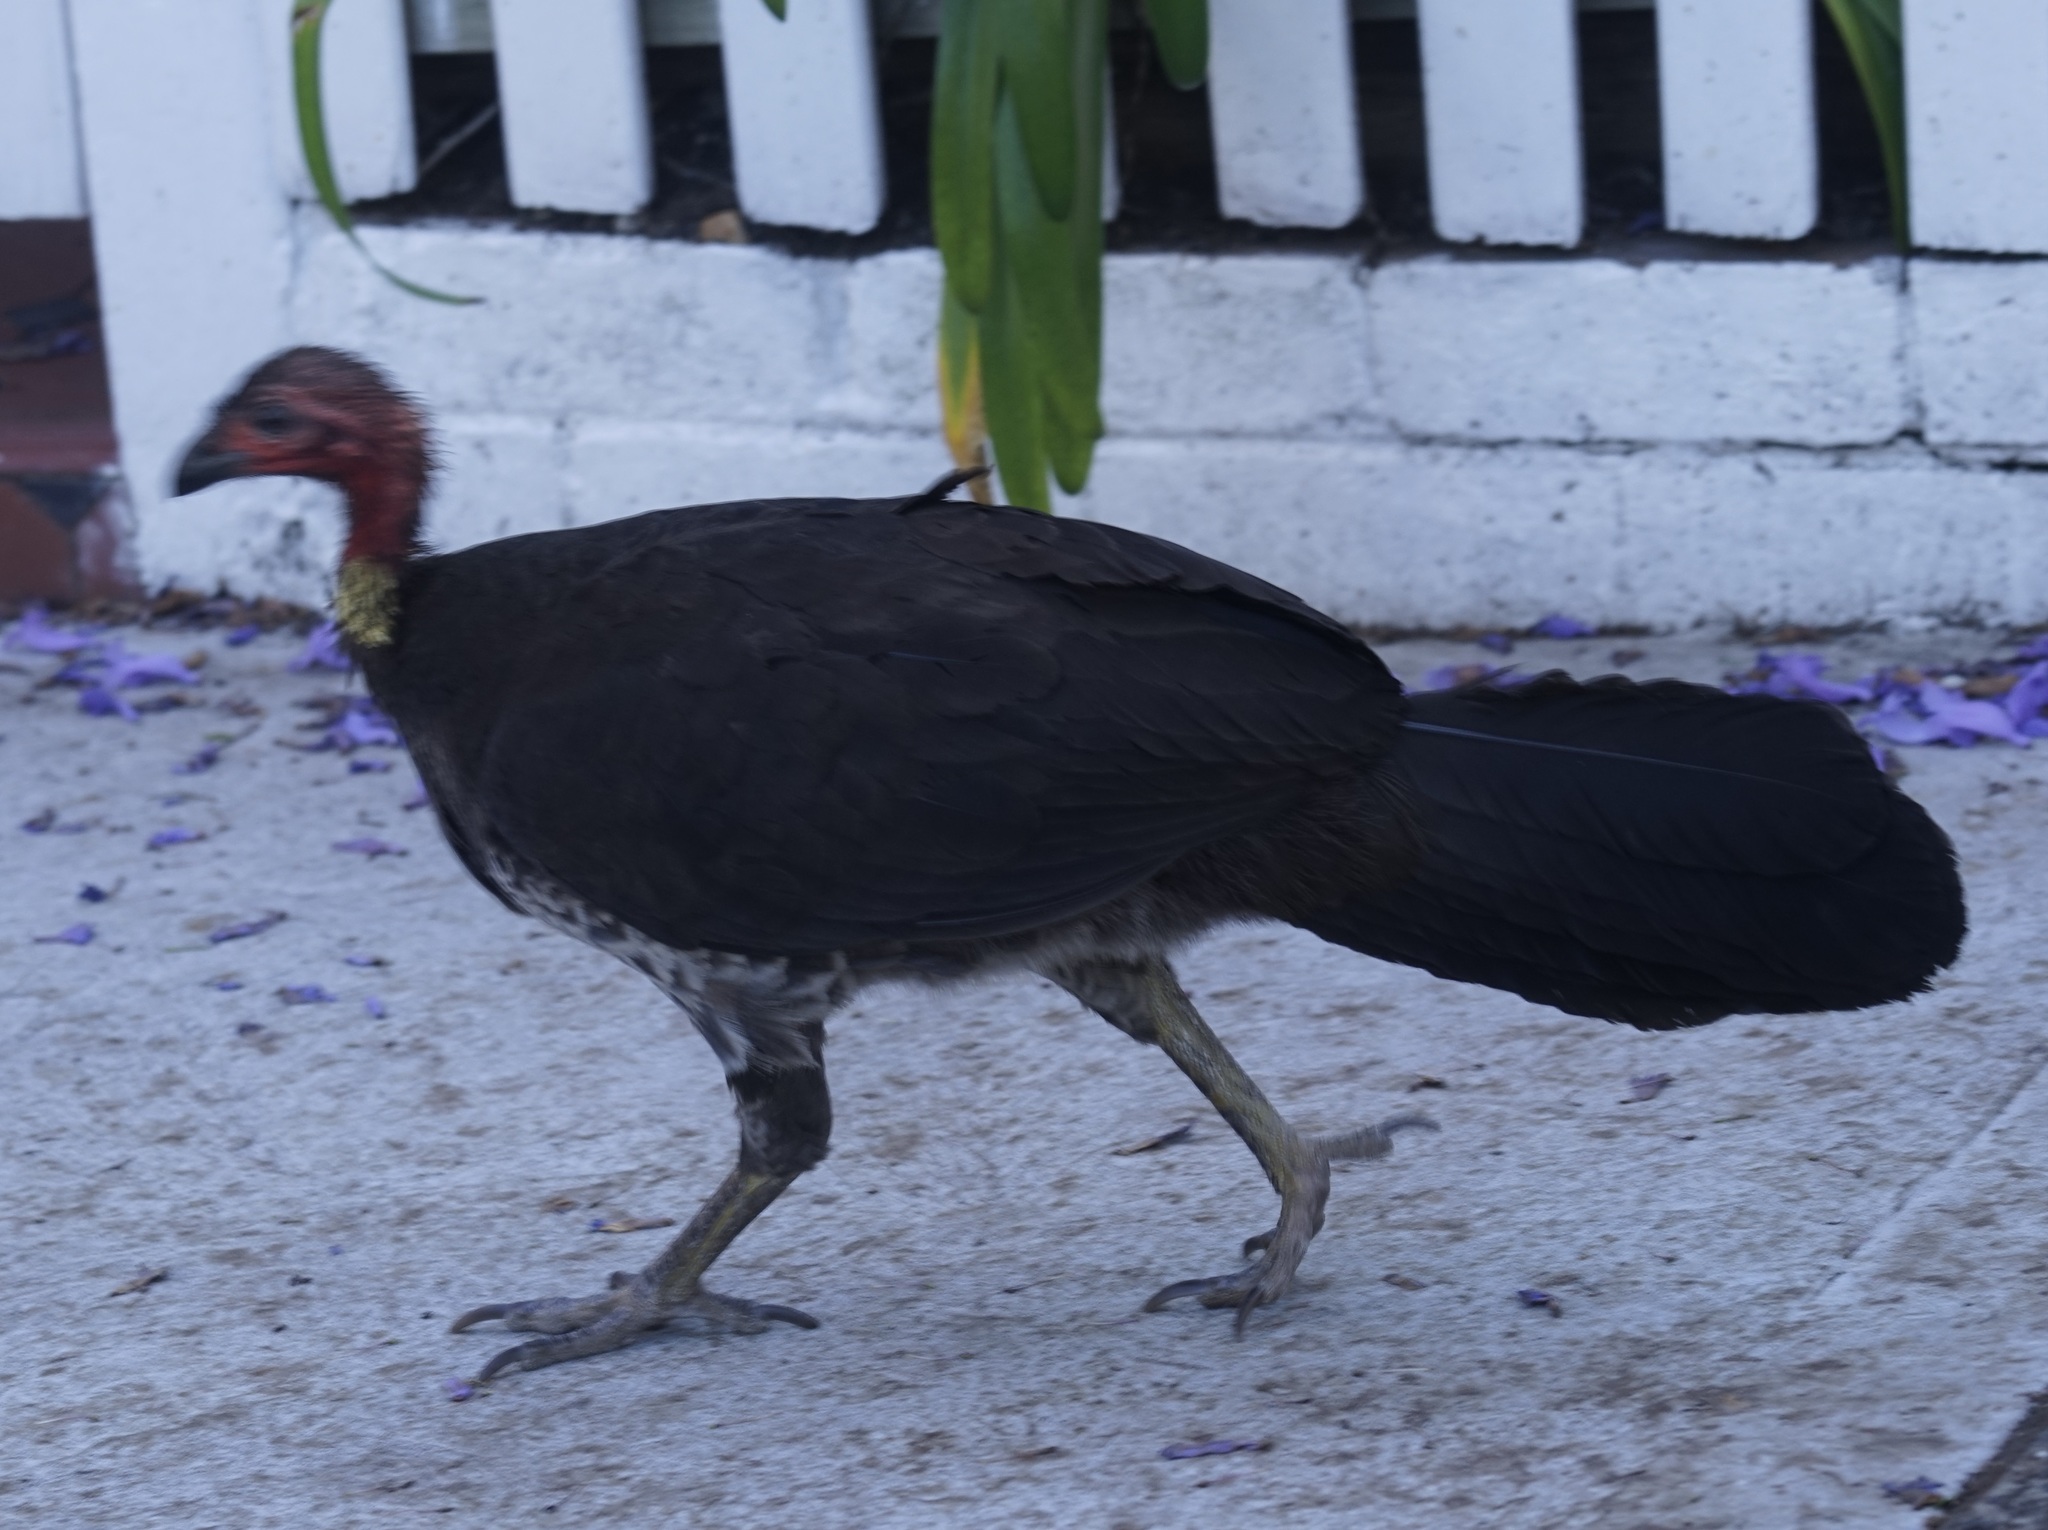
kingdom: Animalia
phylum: Chordata
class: Aves
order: Galliformes
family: Megapodiidae
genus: Alectura
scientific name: Alectura lathami
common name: Australian brushturkey
